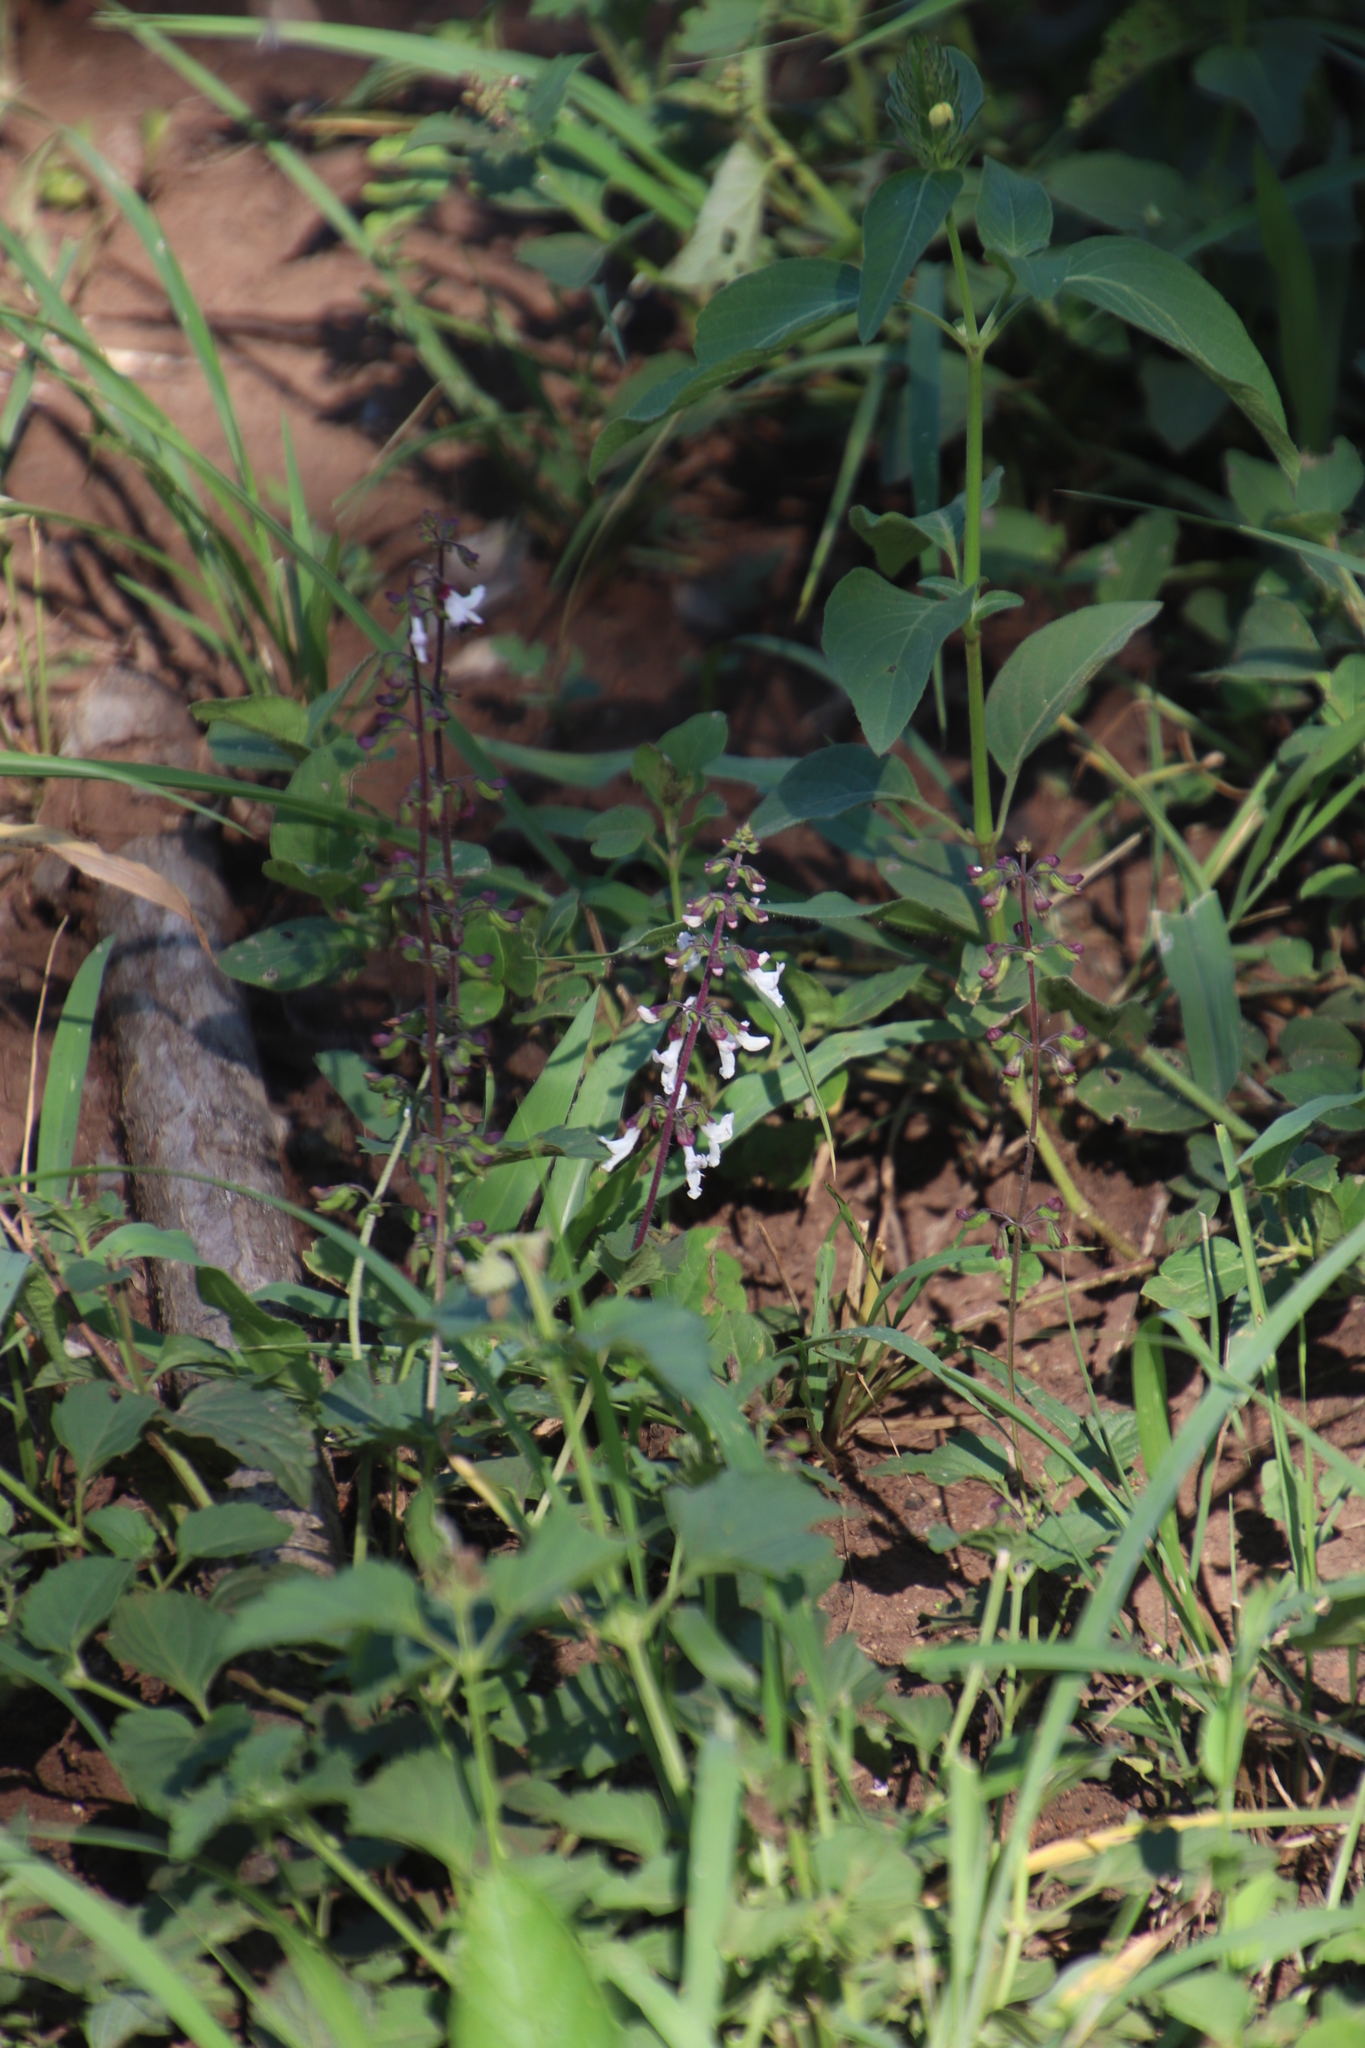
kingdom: Plantae
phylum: Tracheophyta
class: Magnoliopsida
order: Lamiales
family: Lamiaceae
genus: Orthosiphon
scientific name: Orthosiphon thymiflorus
